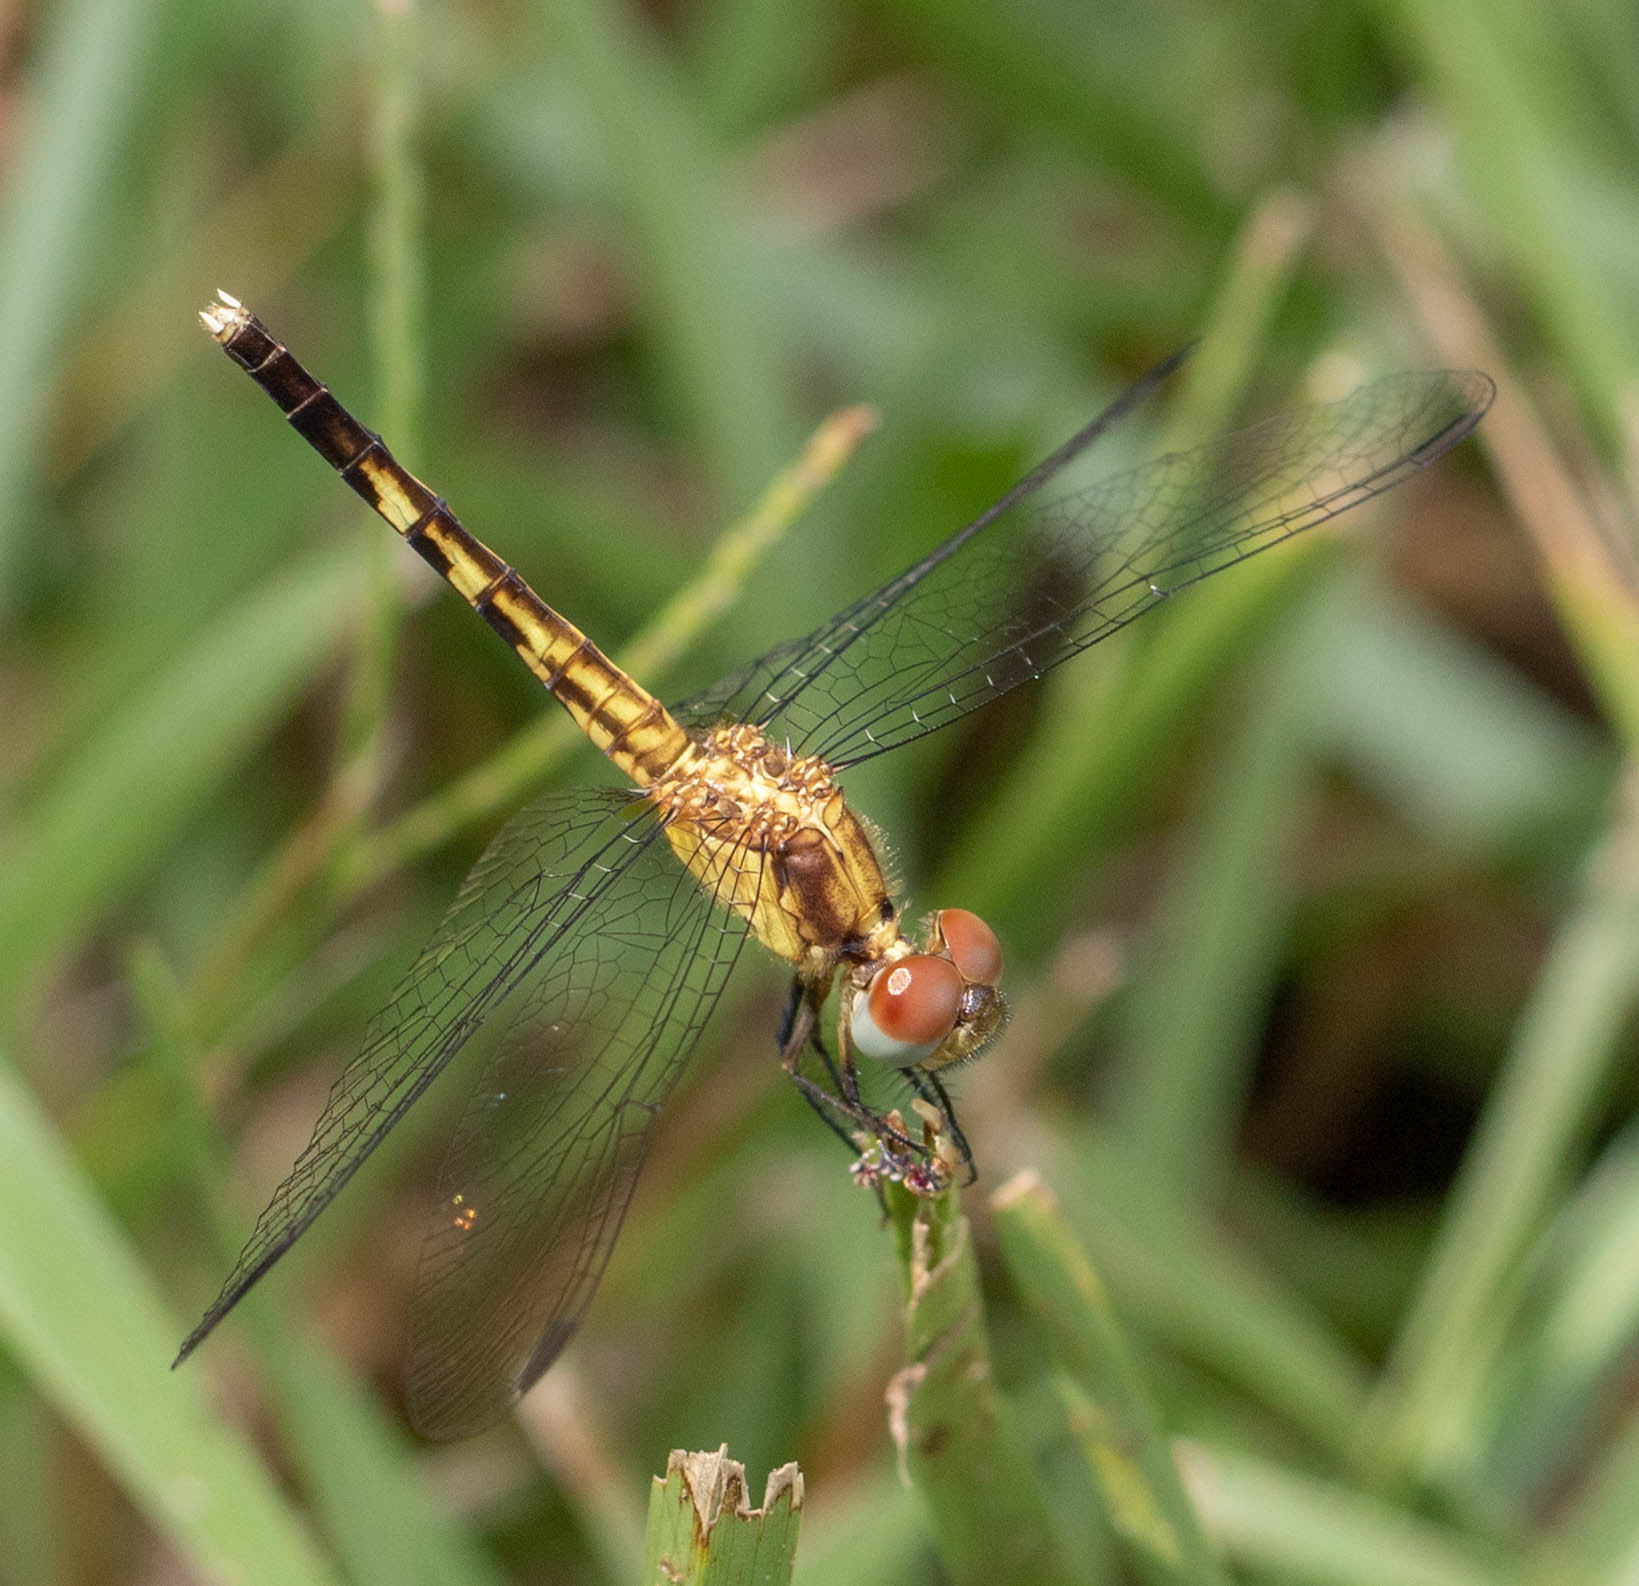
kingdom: Animalia
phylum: Arthropoda
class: Insecta
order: Odonata
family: Libellulidae
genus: Erythrodiplax
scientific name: Erythrodiplax minuscula
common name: Little blue dragonlet
